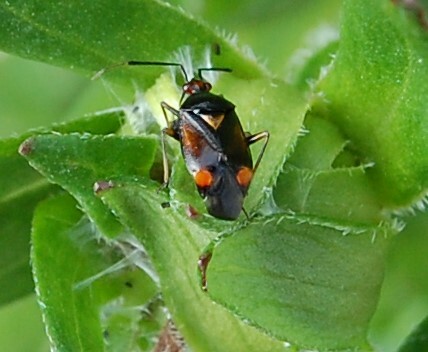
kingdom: Animalia
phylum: Arthropoda
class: Insecta
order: Hemiptera
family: Miridae
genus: Deraeocoris
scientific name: Deraeocoris ruber
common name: Plant bug
